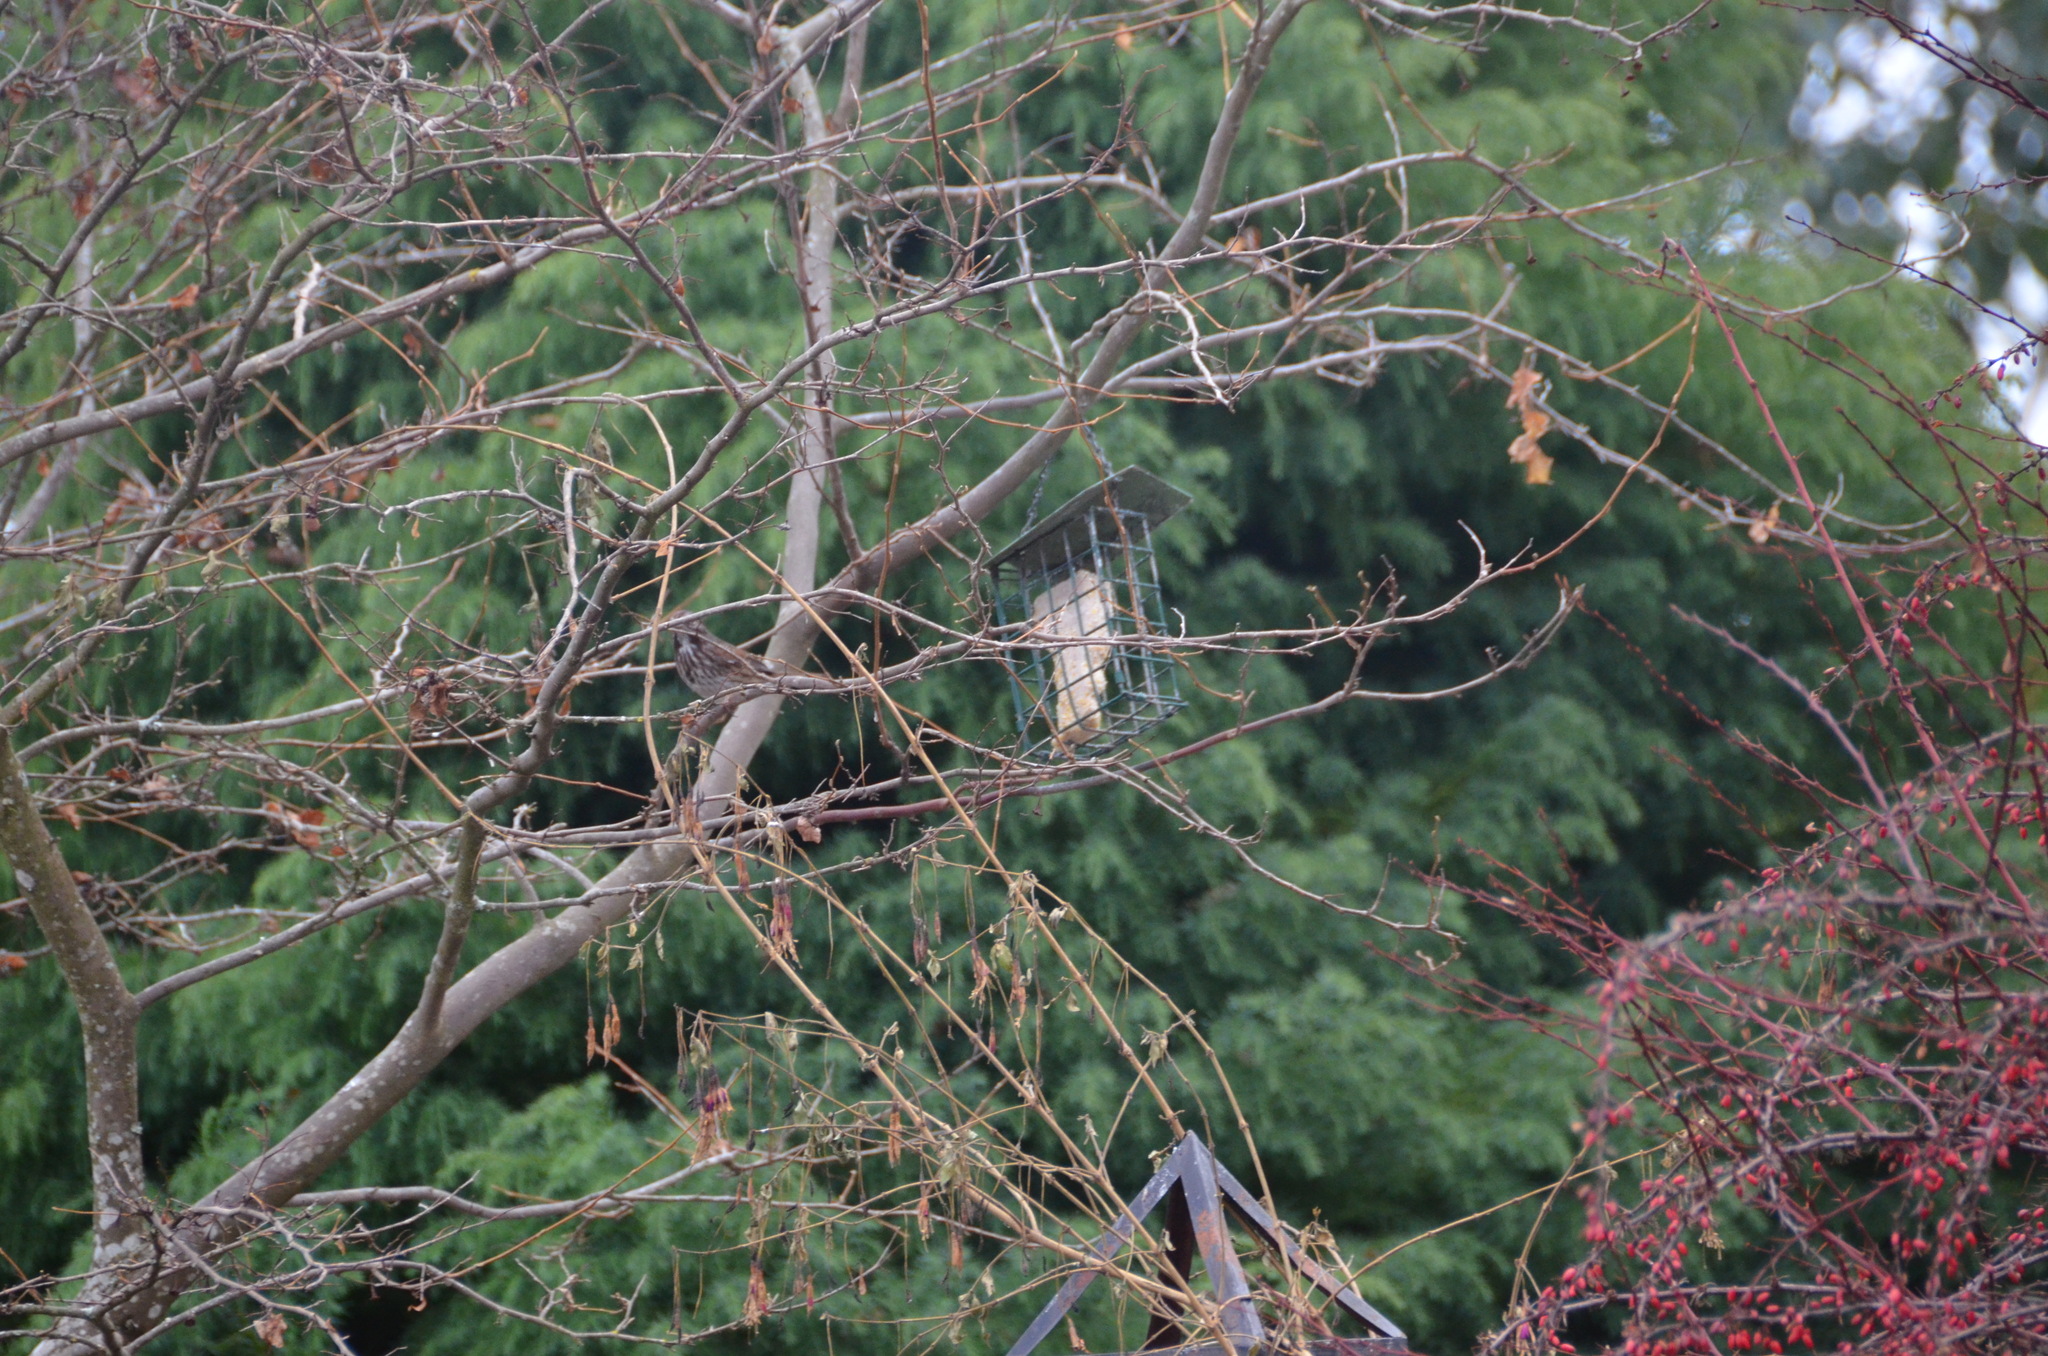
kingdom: Animalia
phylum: Chordata
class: Aves
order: Passeriformes
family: Passerellidae
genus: Melospiza
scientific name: Melospiza melodia
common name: Song sparrow
